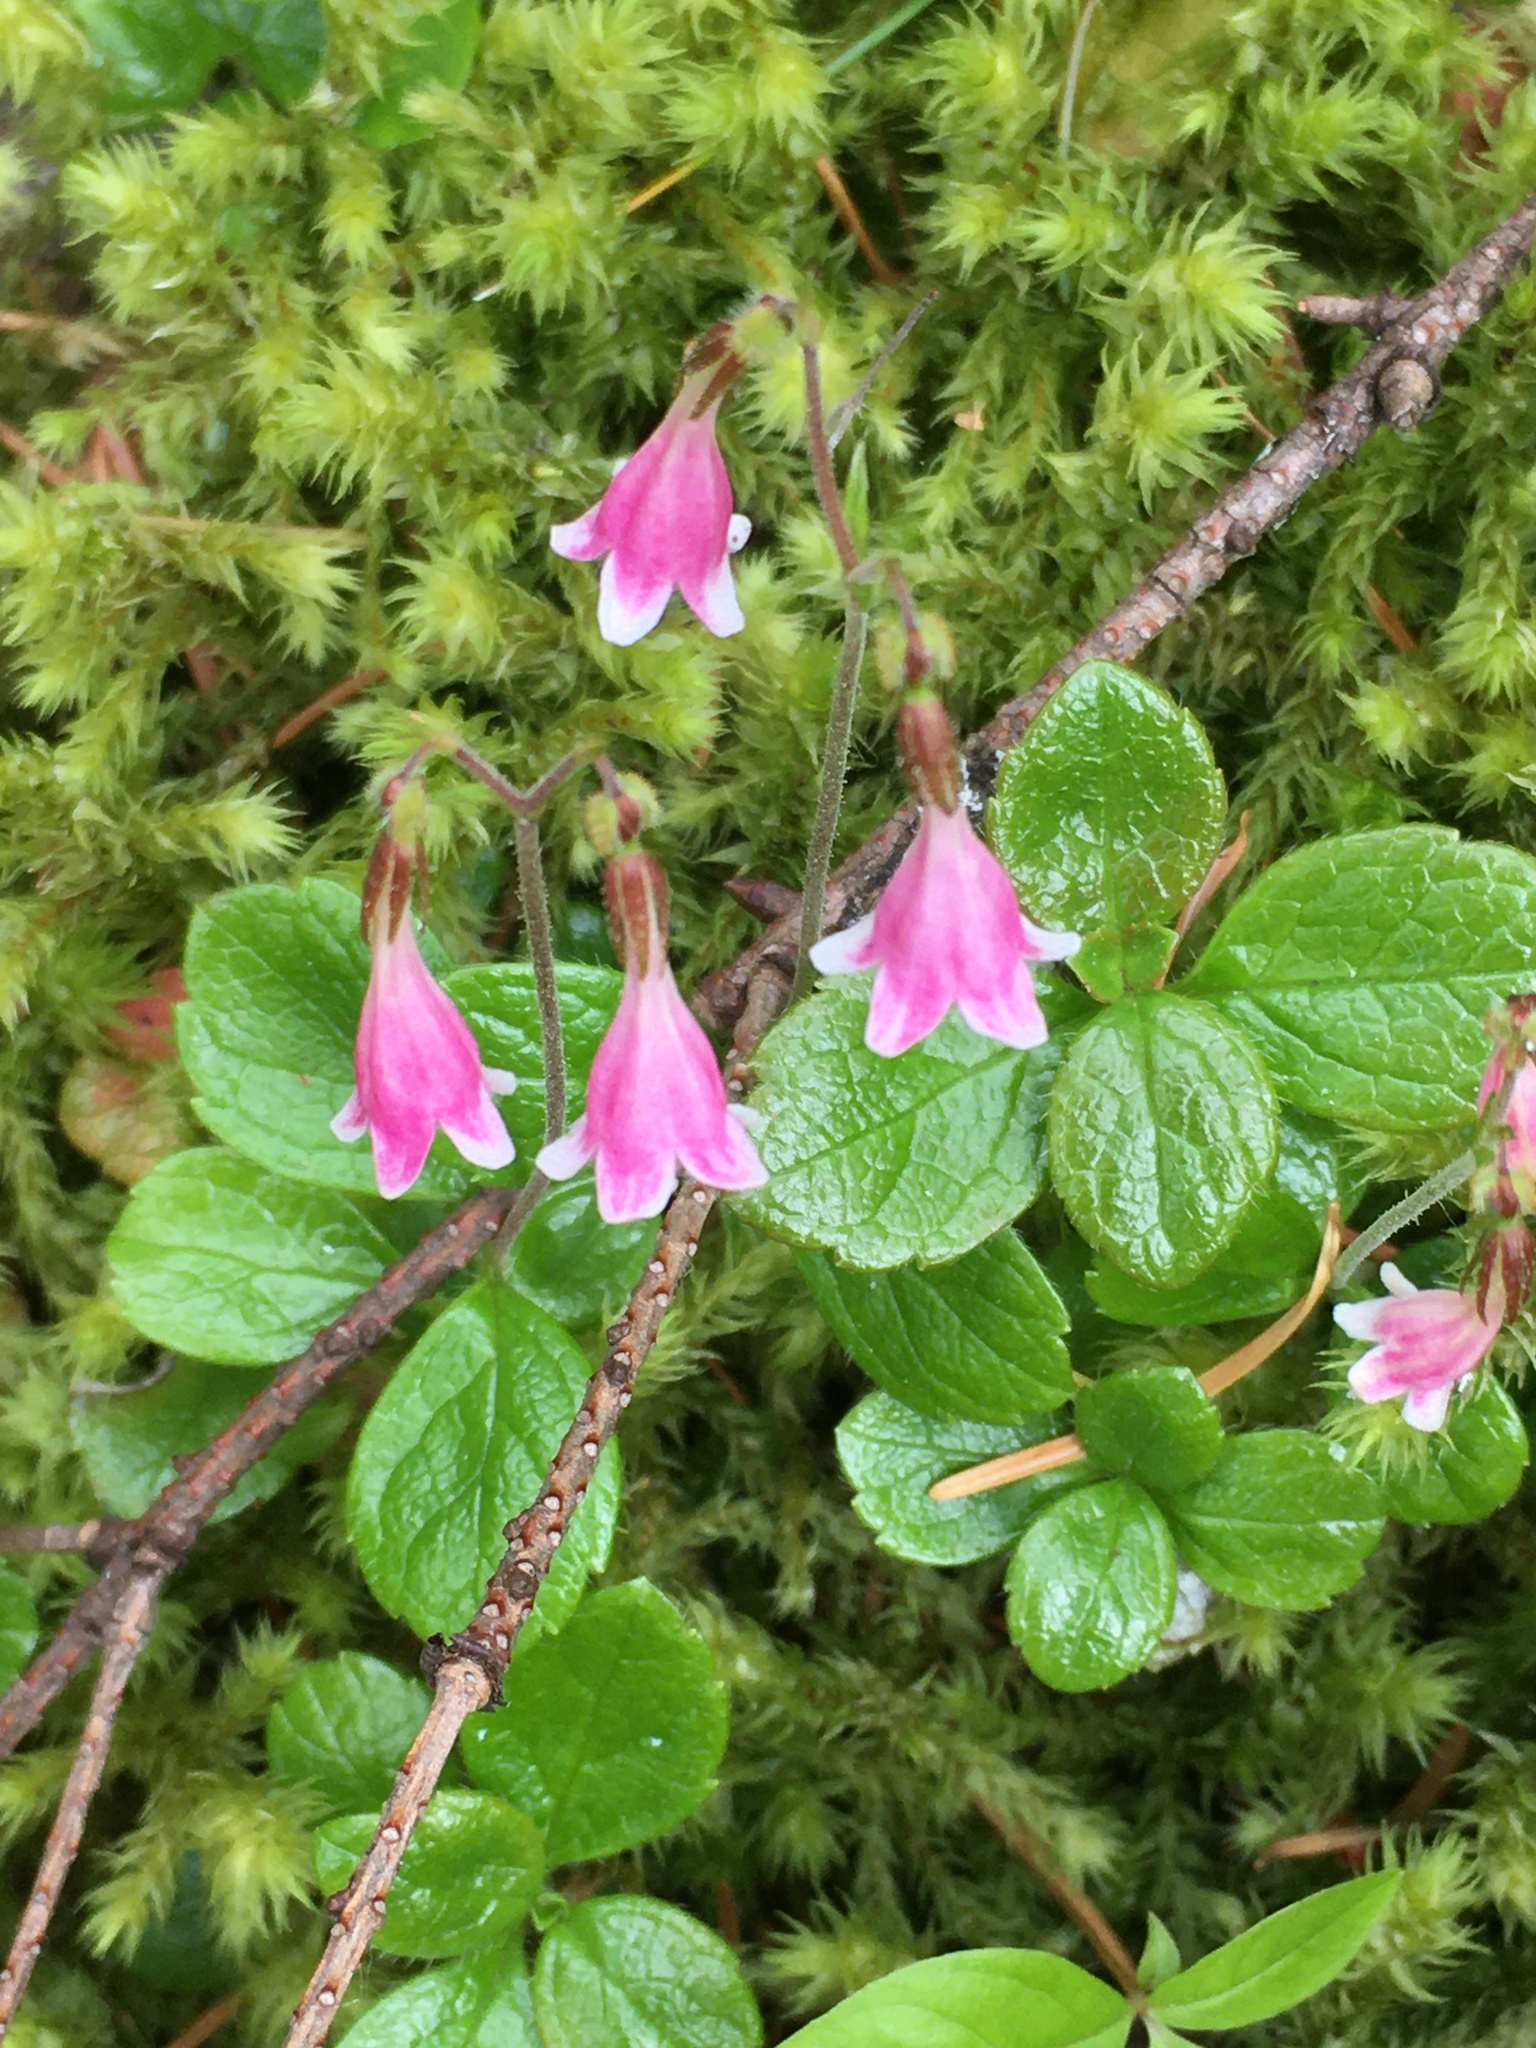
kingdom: Plantae
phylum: Tracheophyta
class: Magnoliopsida
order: Dipsacales
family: Caprifoliaceae
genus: Linnaea
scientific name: Linnaea borealis
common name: Twinflower
